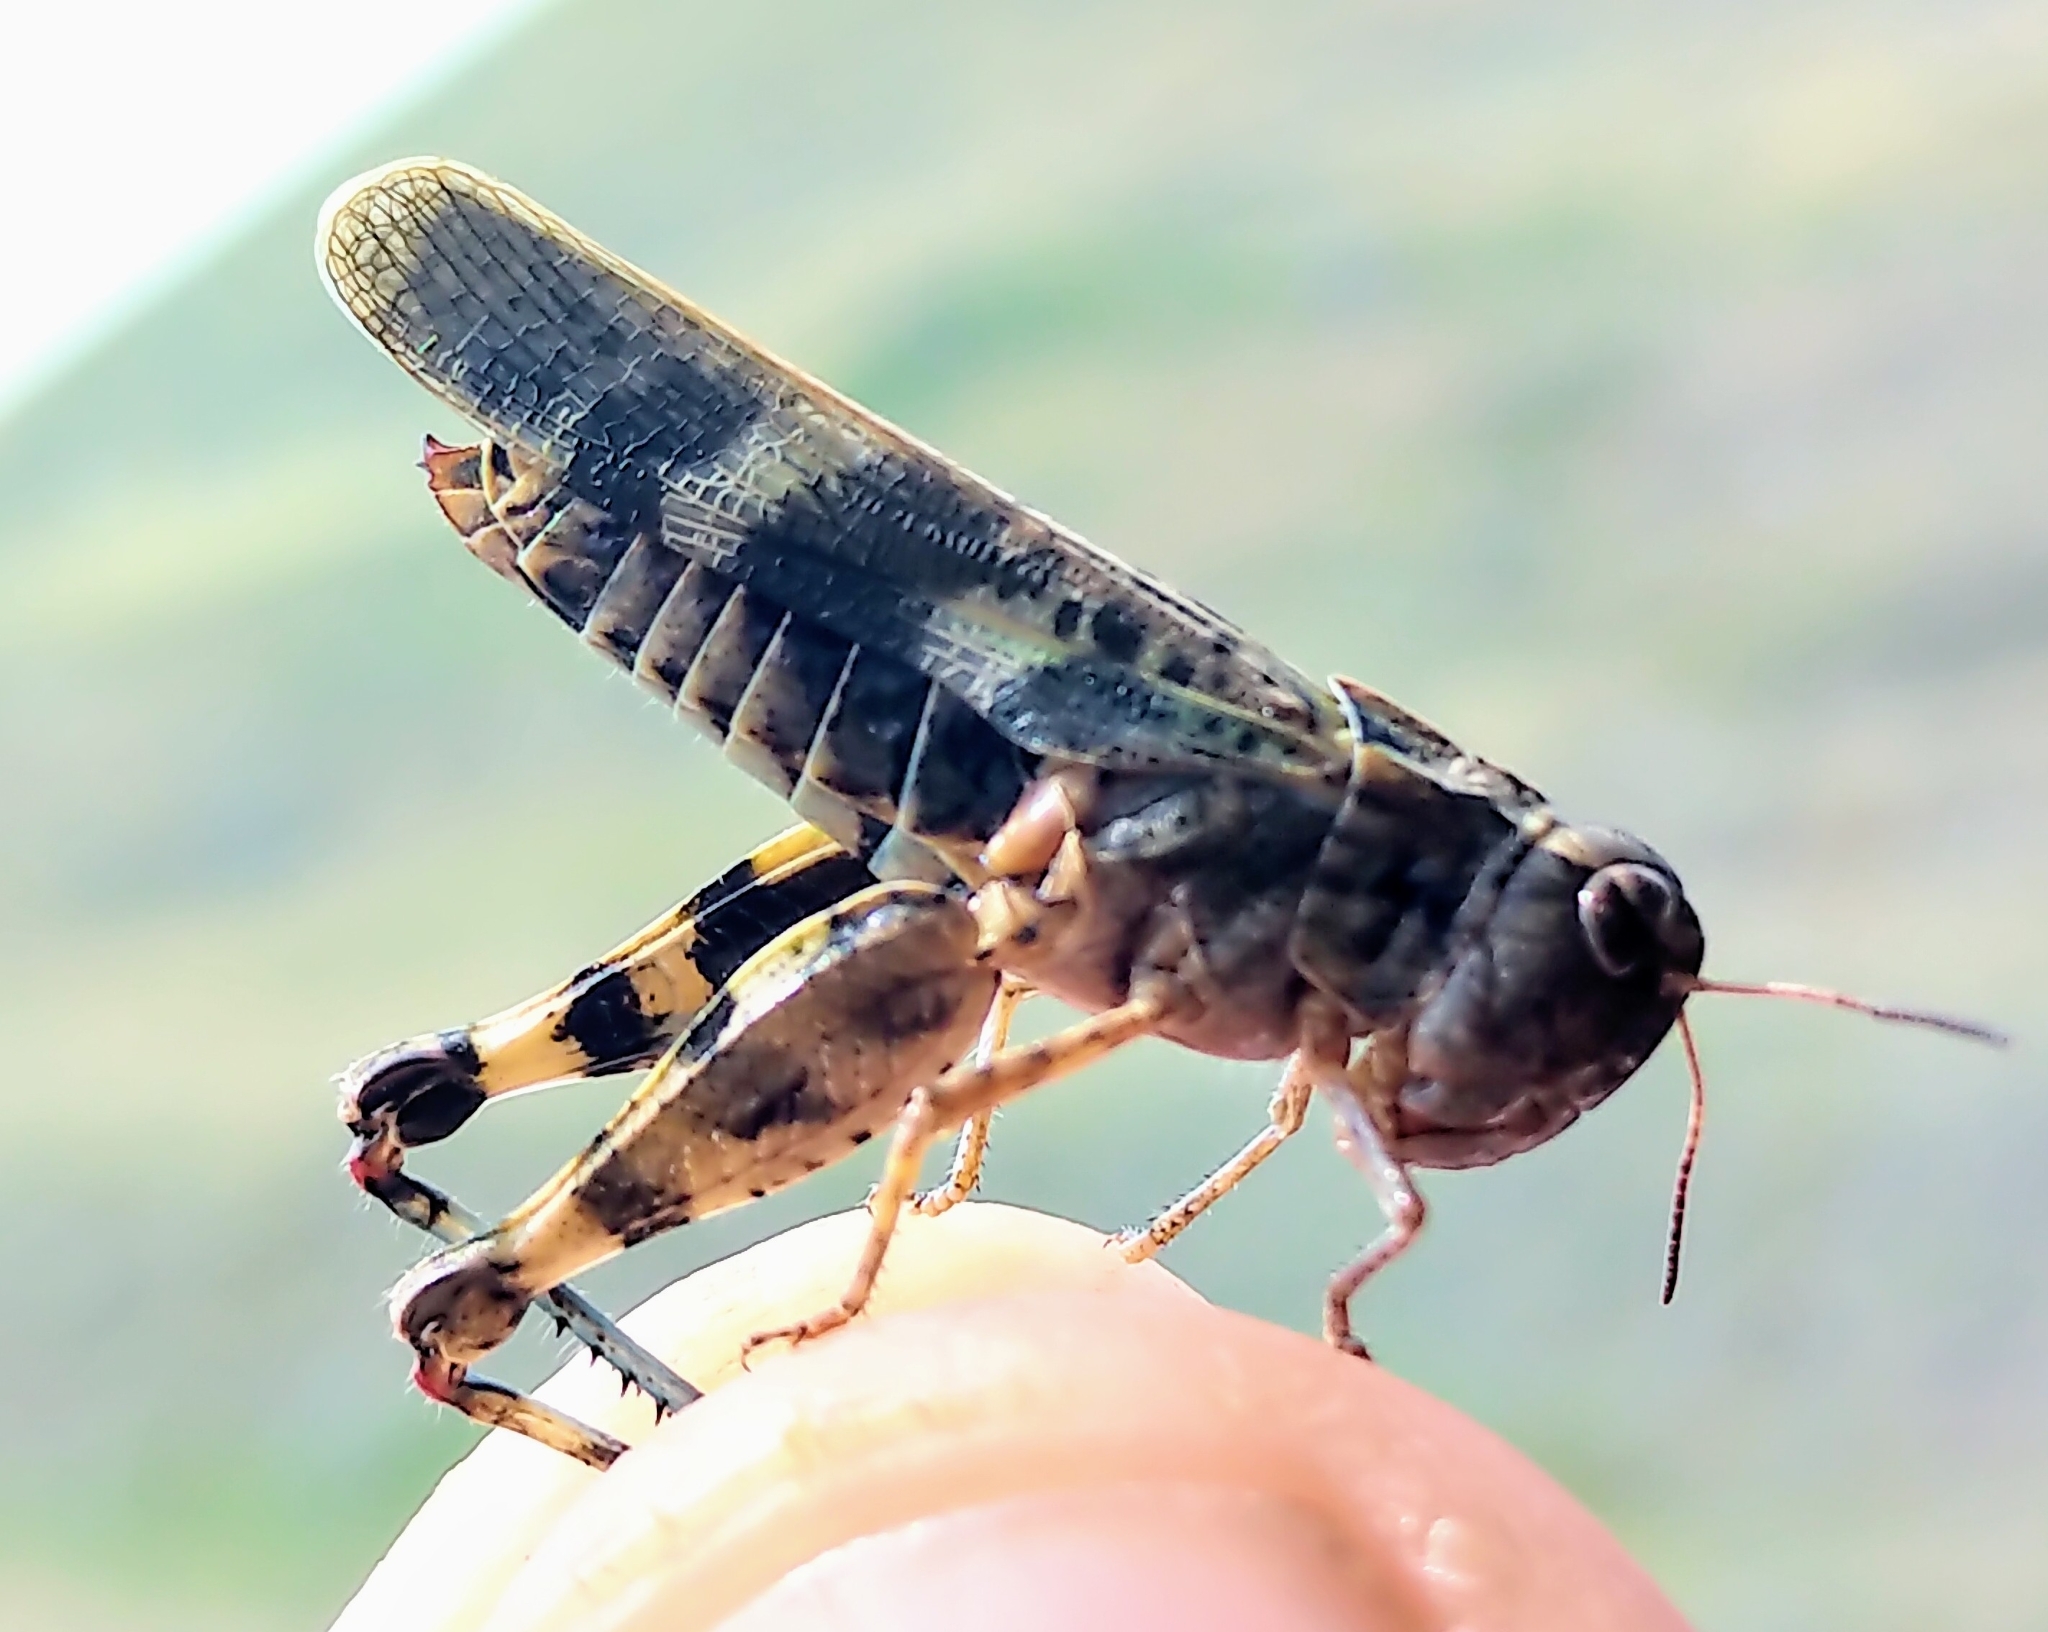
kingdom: Animalia
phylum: Arthropoda
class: Insecta
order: Orthoptera
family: Acrididae
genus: Encoptolophus
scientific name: Encoptolophus costalis
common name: Dusky grasshopper
